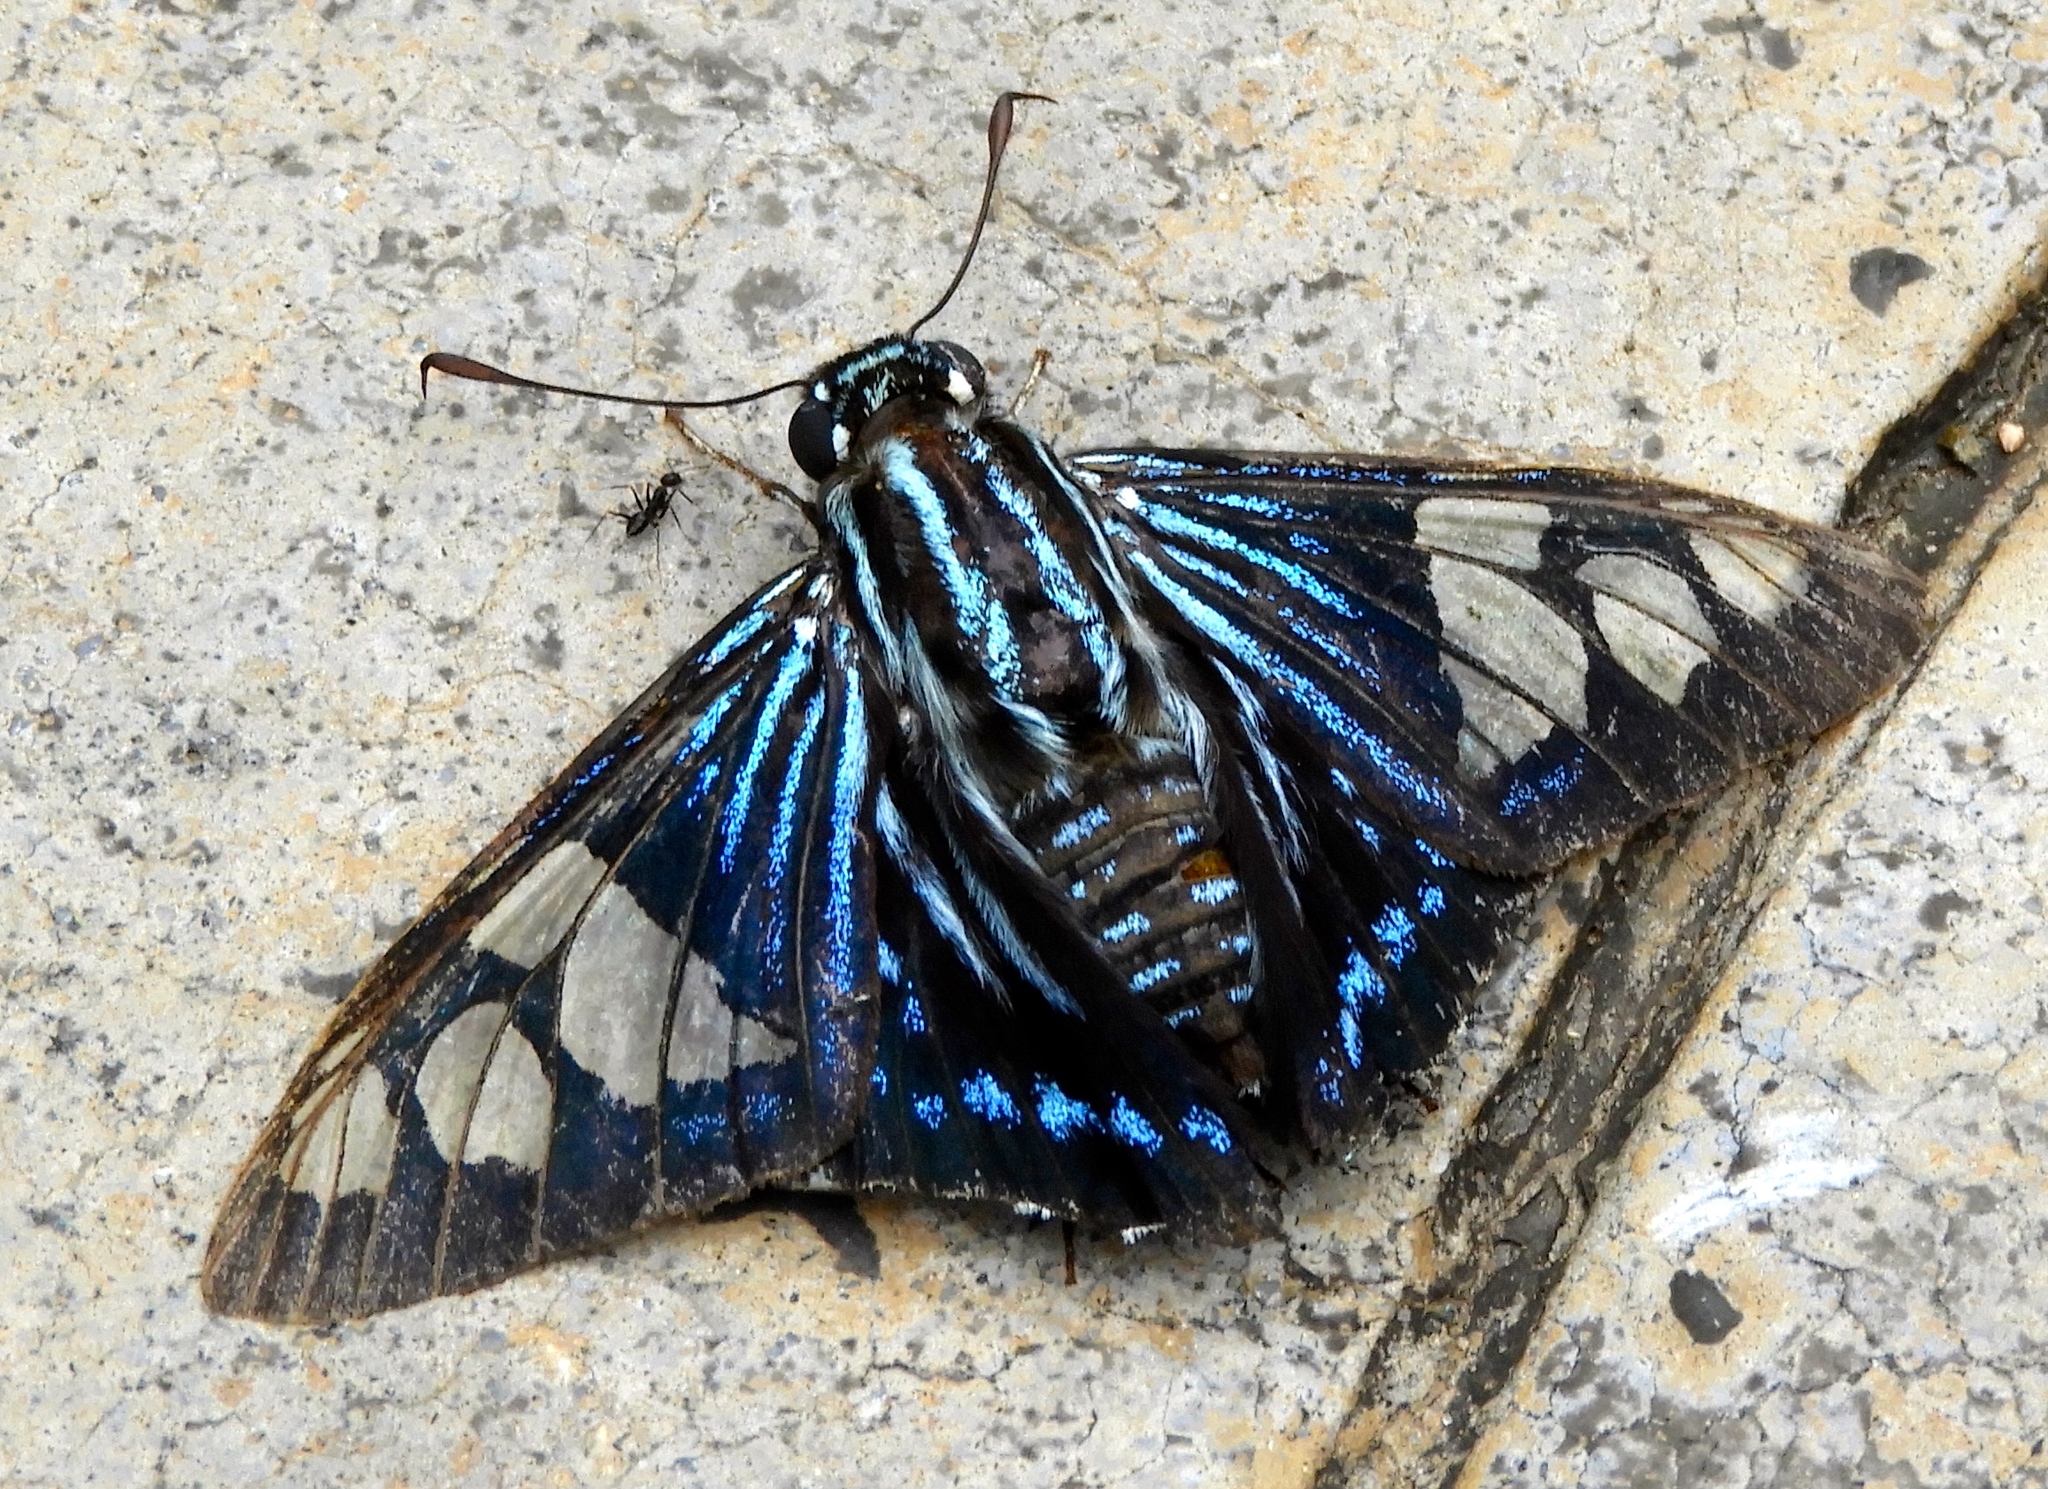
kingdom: Animalia
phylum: Arthropoda
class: Insecta
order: Lepidoptera
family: Hesperiidae
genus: Phocides
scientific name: Phocides pigmalion
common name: Mangrove skipper
